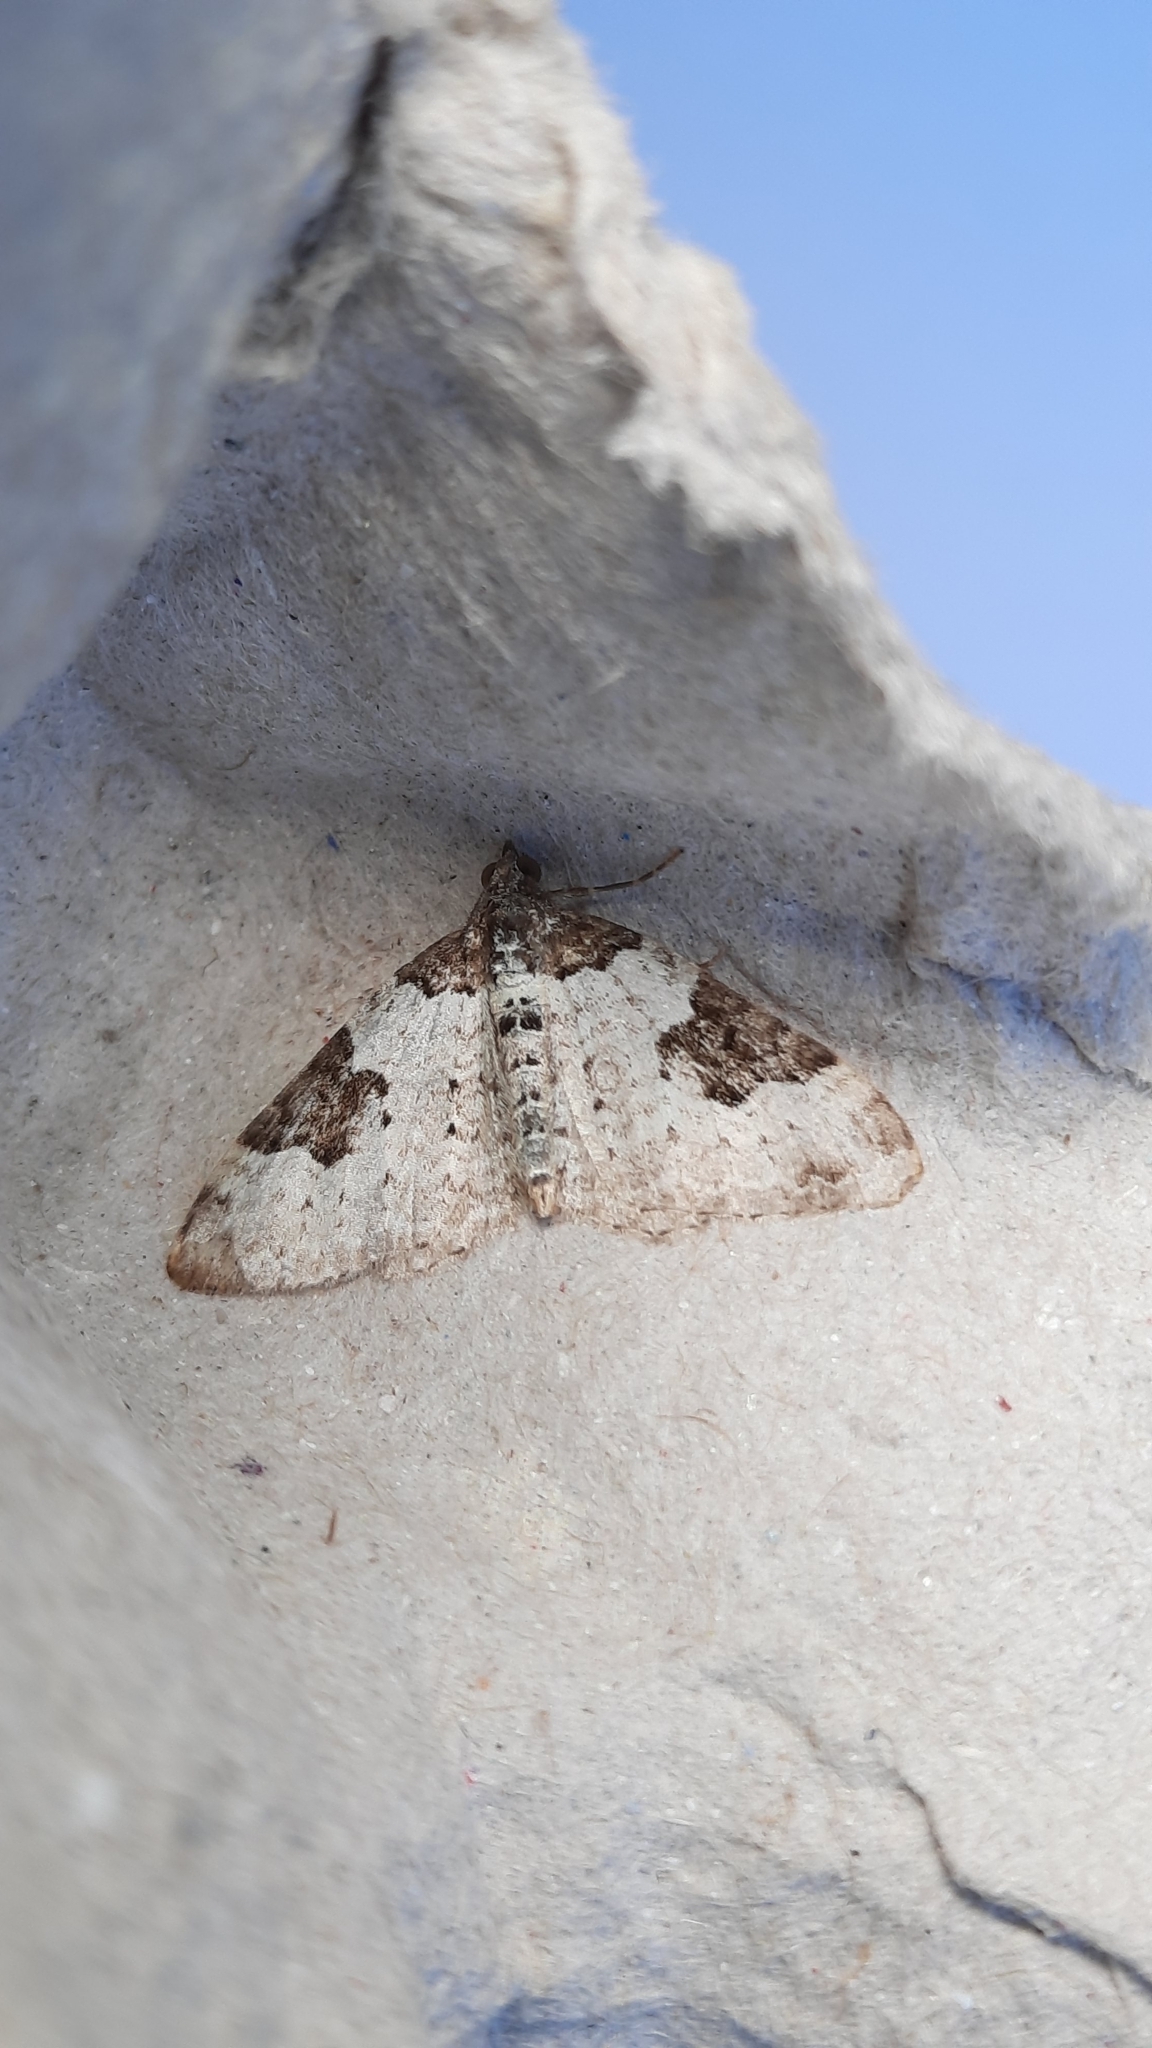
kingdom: Animalia
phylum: Arthropoda
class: Insecta
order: Lepidoptera
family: Geometridae
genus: Xanthorhoe
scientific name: Xanthorhoe fluctuata
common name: Garden carpet
